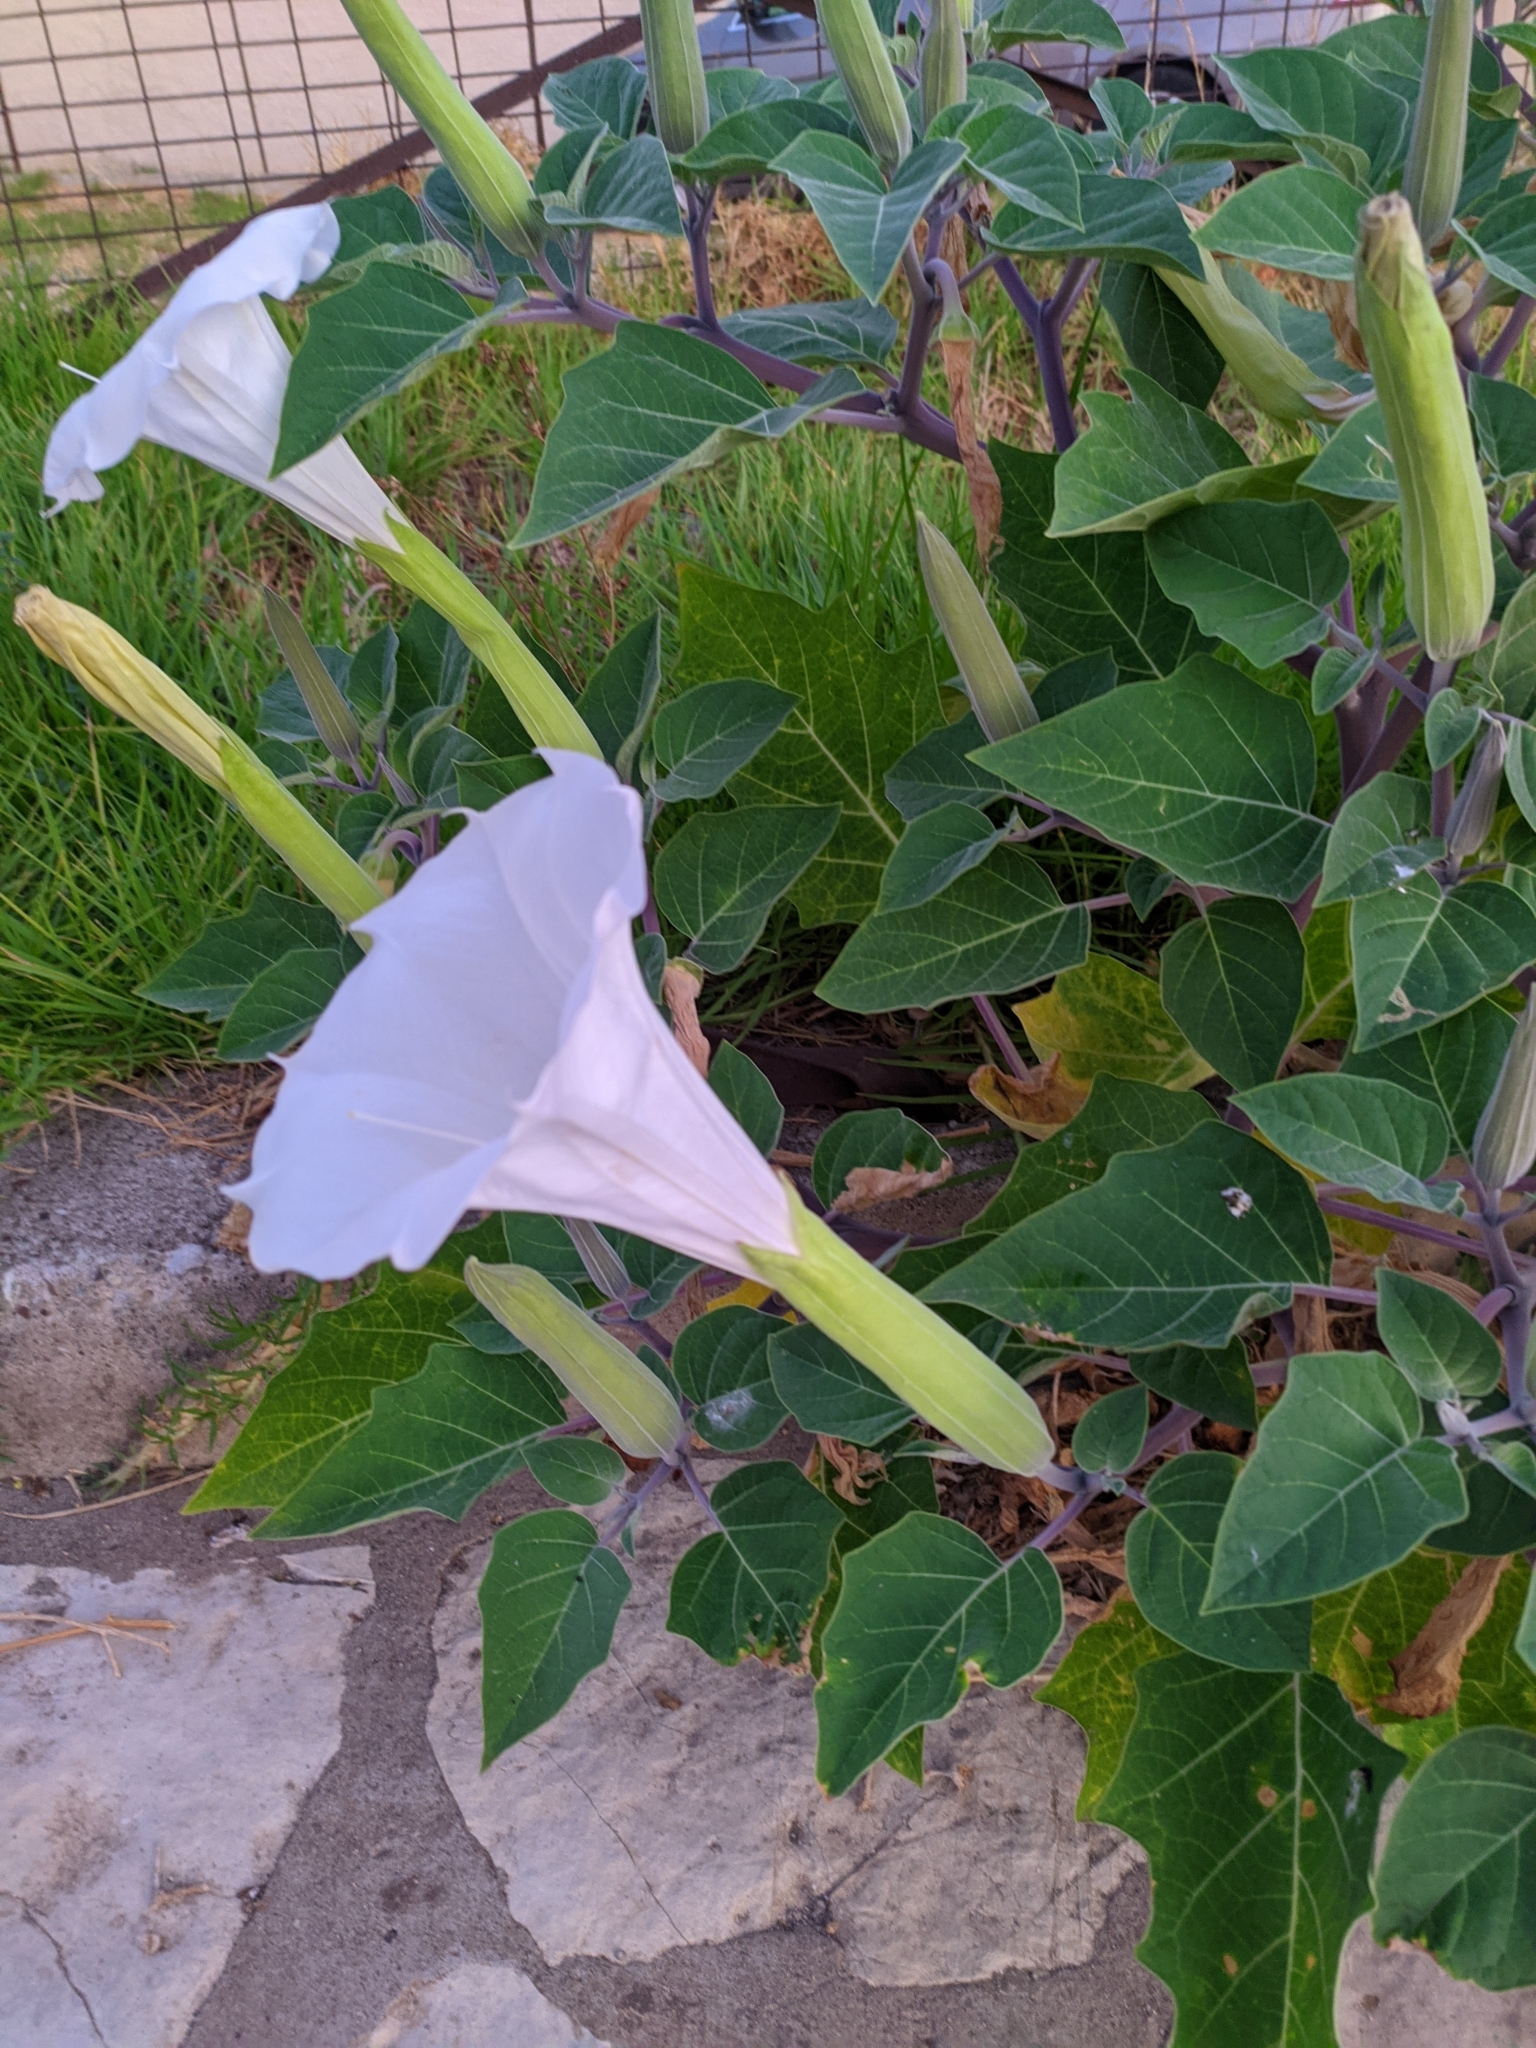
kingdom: Plantae
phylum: Tracheophyta
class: Magnoliopsida
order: Solanales
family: Solanaceae
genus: Datura
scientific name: Datura innoxia
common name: Downy thorn-apple
